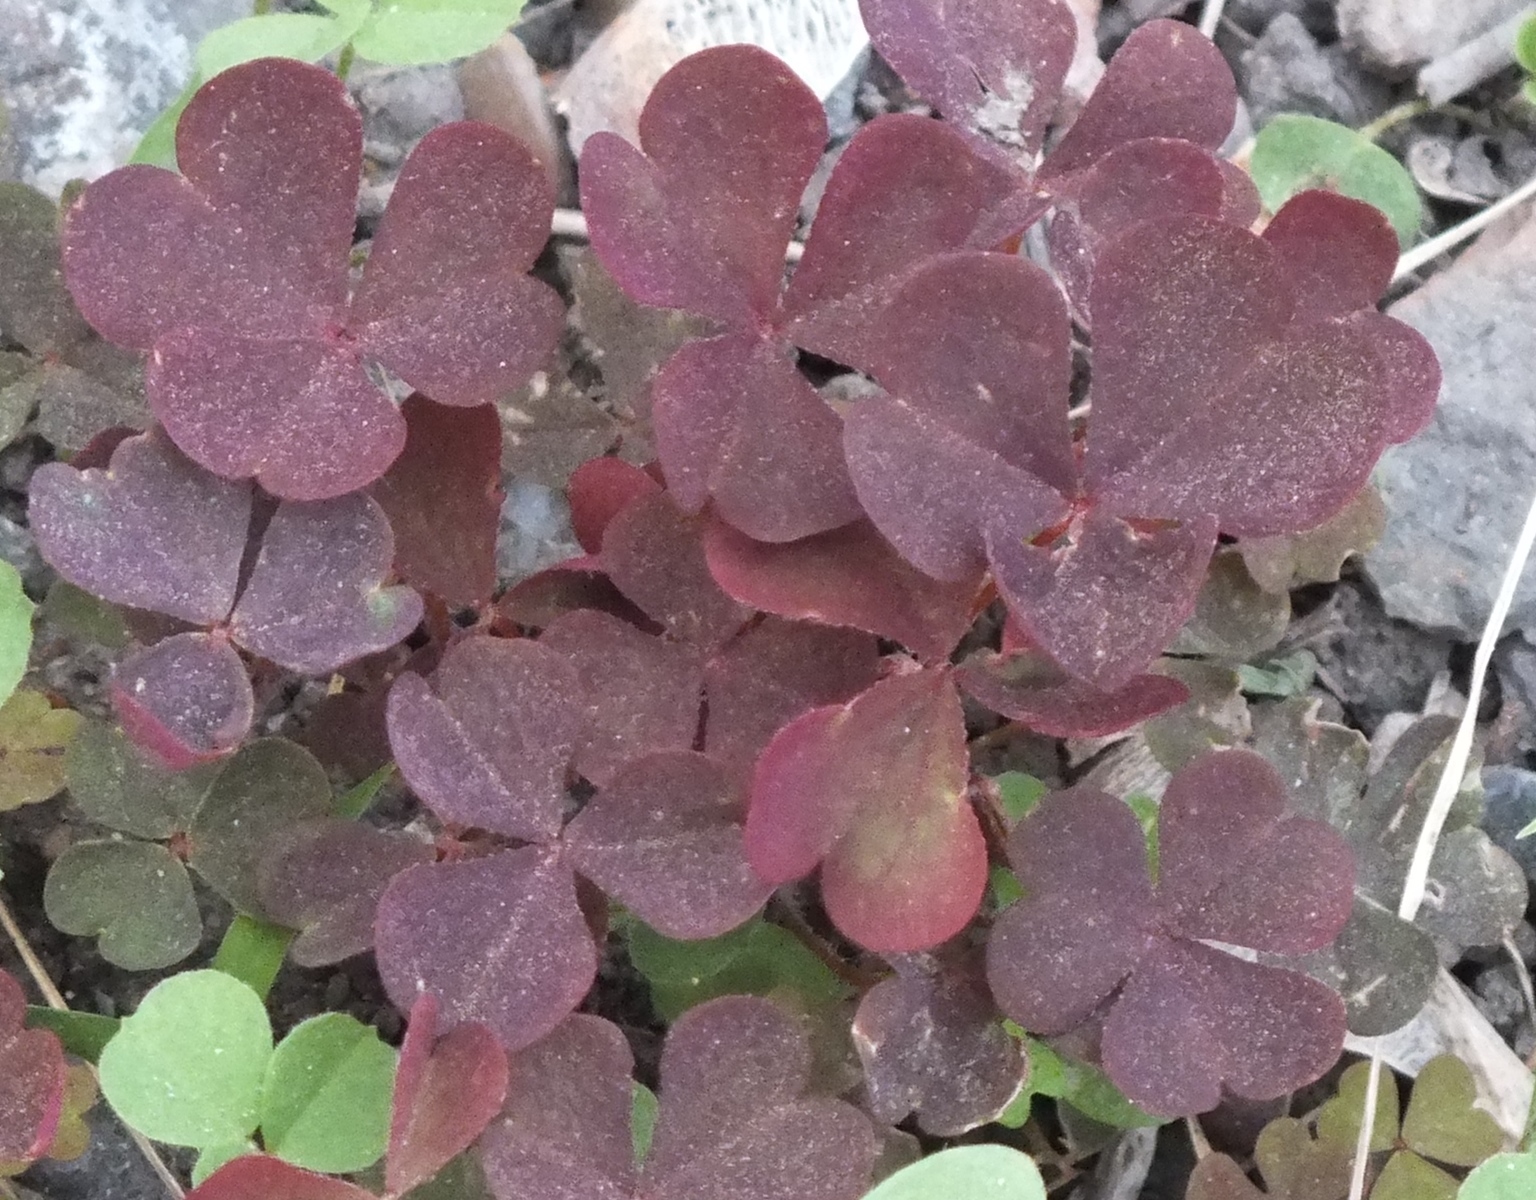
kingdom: Plantae
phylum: Tracheophyta
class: Magnoliopsida
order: Oxalidales
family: Oxalidaceae
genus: Oxalis
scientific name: Oxalis stricta
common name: Upright yellow-sorrel
